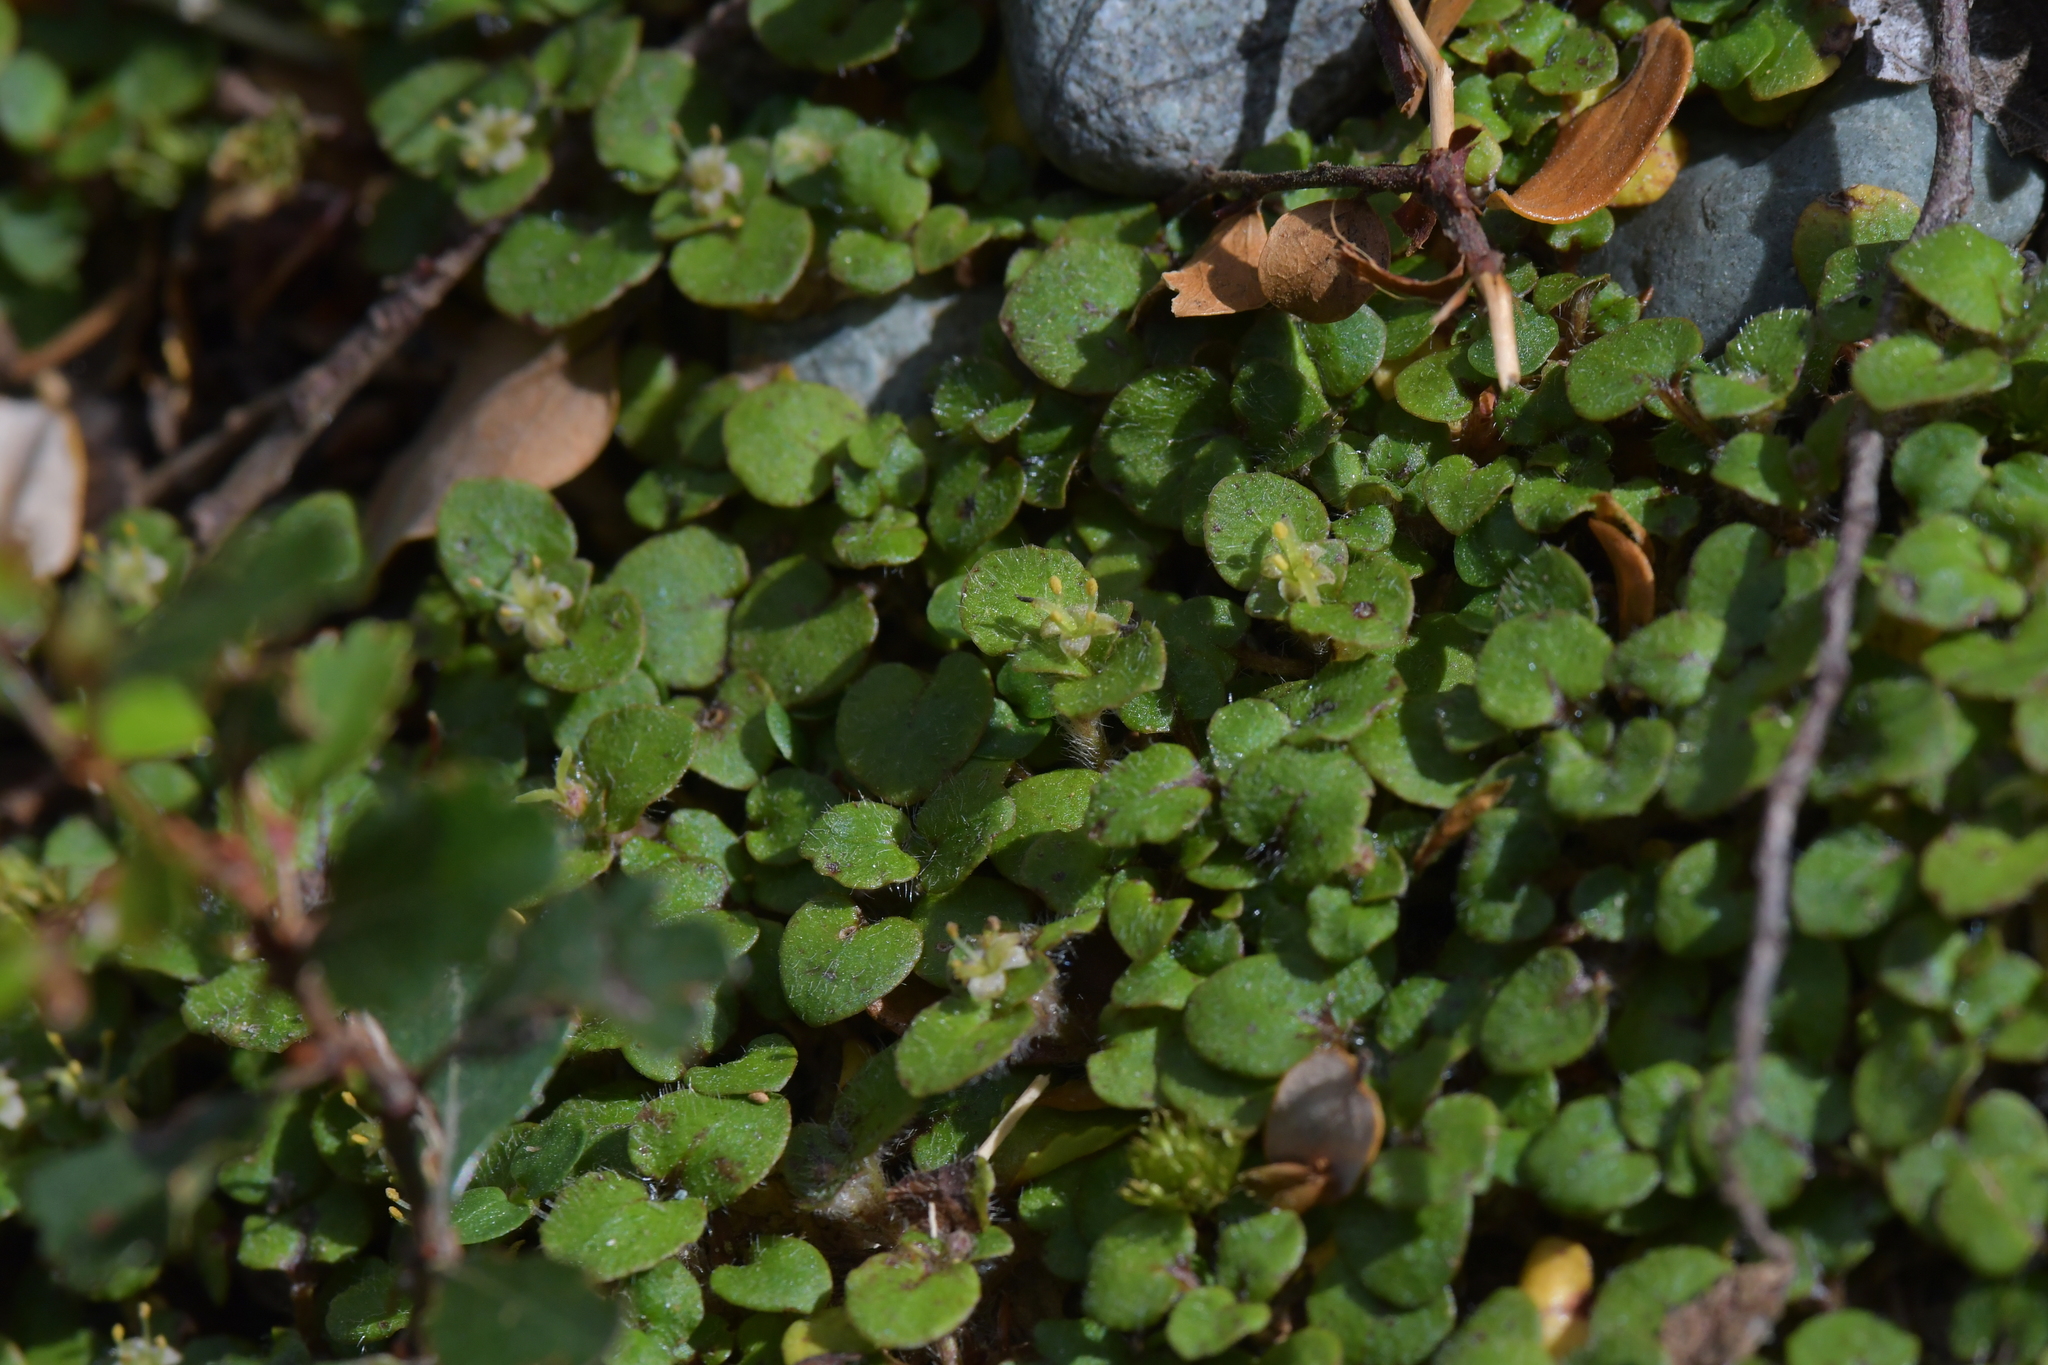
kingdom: Plantae
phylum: Tracheophyta
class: Magnoliopsida
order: Gentianales
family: Rubiaceae
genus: Nertera
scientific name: Nertera villosa
